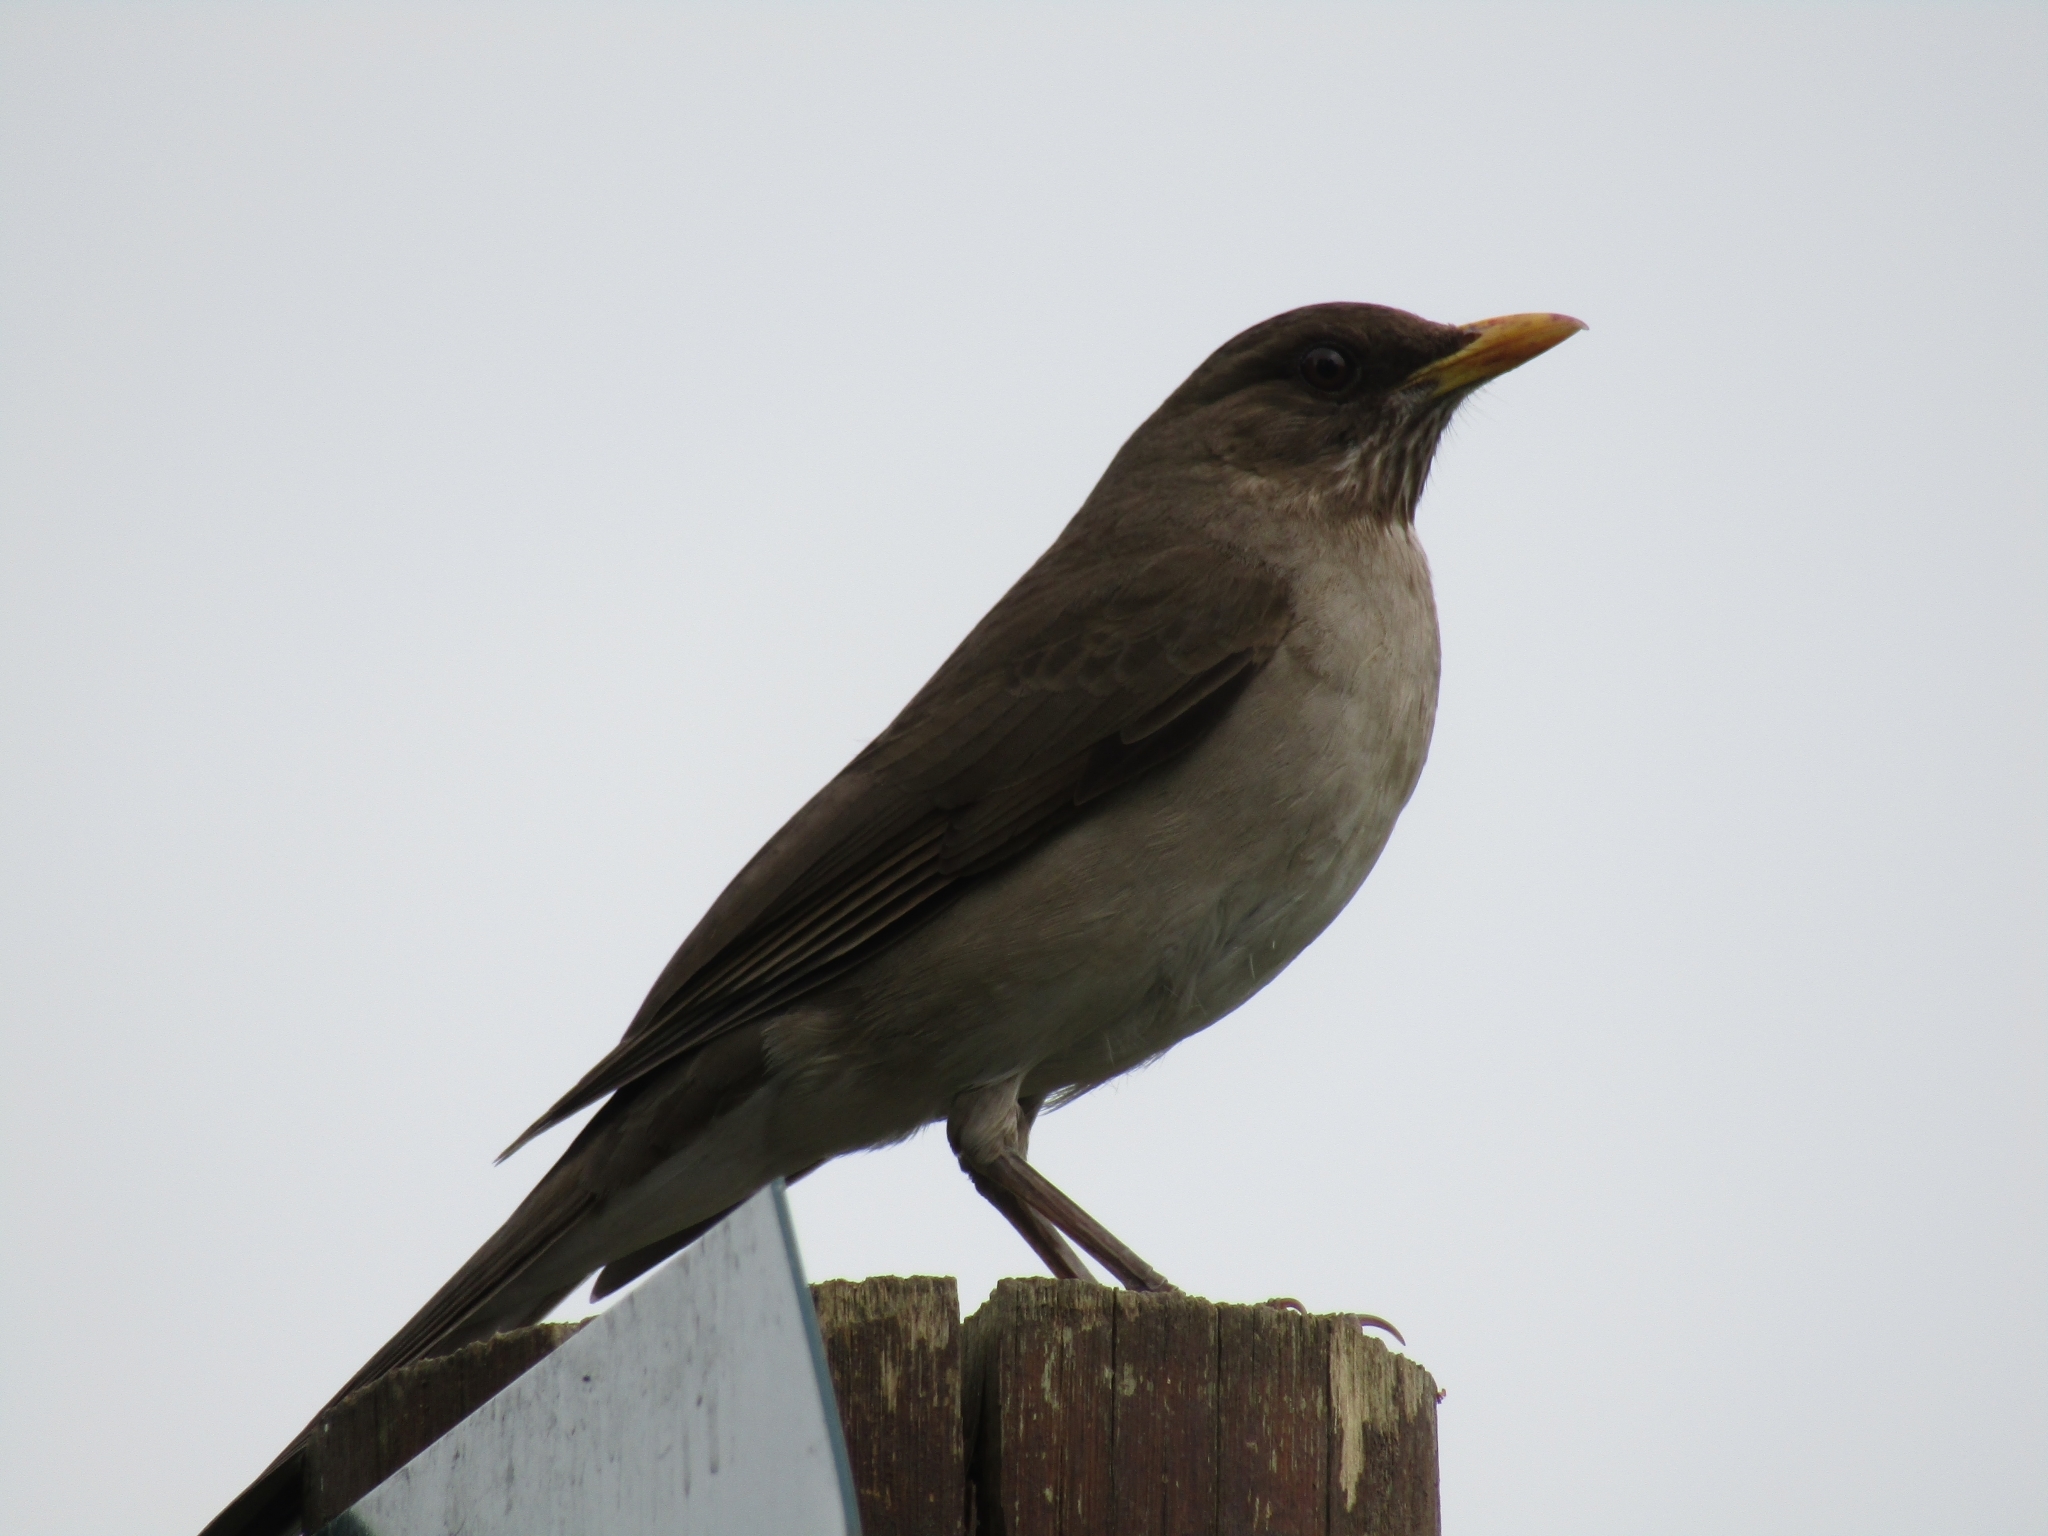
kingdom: Animalia
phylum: Chordata
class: Aves
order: Passeriformes
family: Turdidae
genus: Turdus
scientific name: Turdus amaurochalinus
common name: Creamy-bellied thrush
